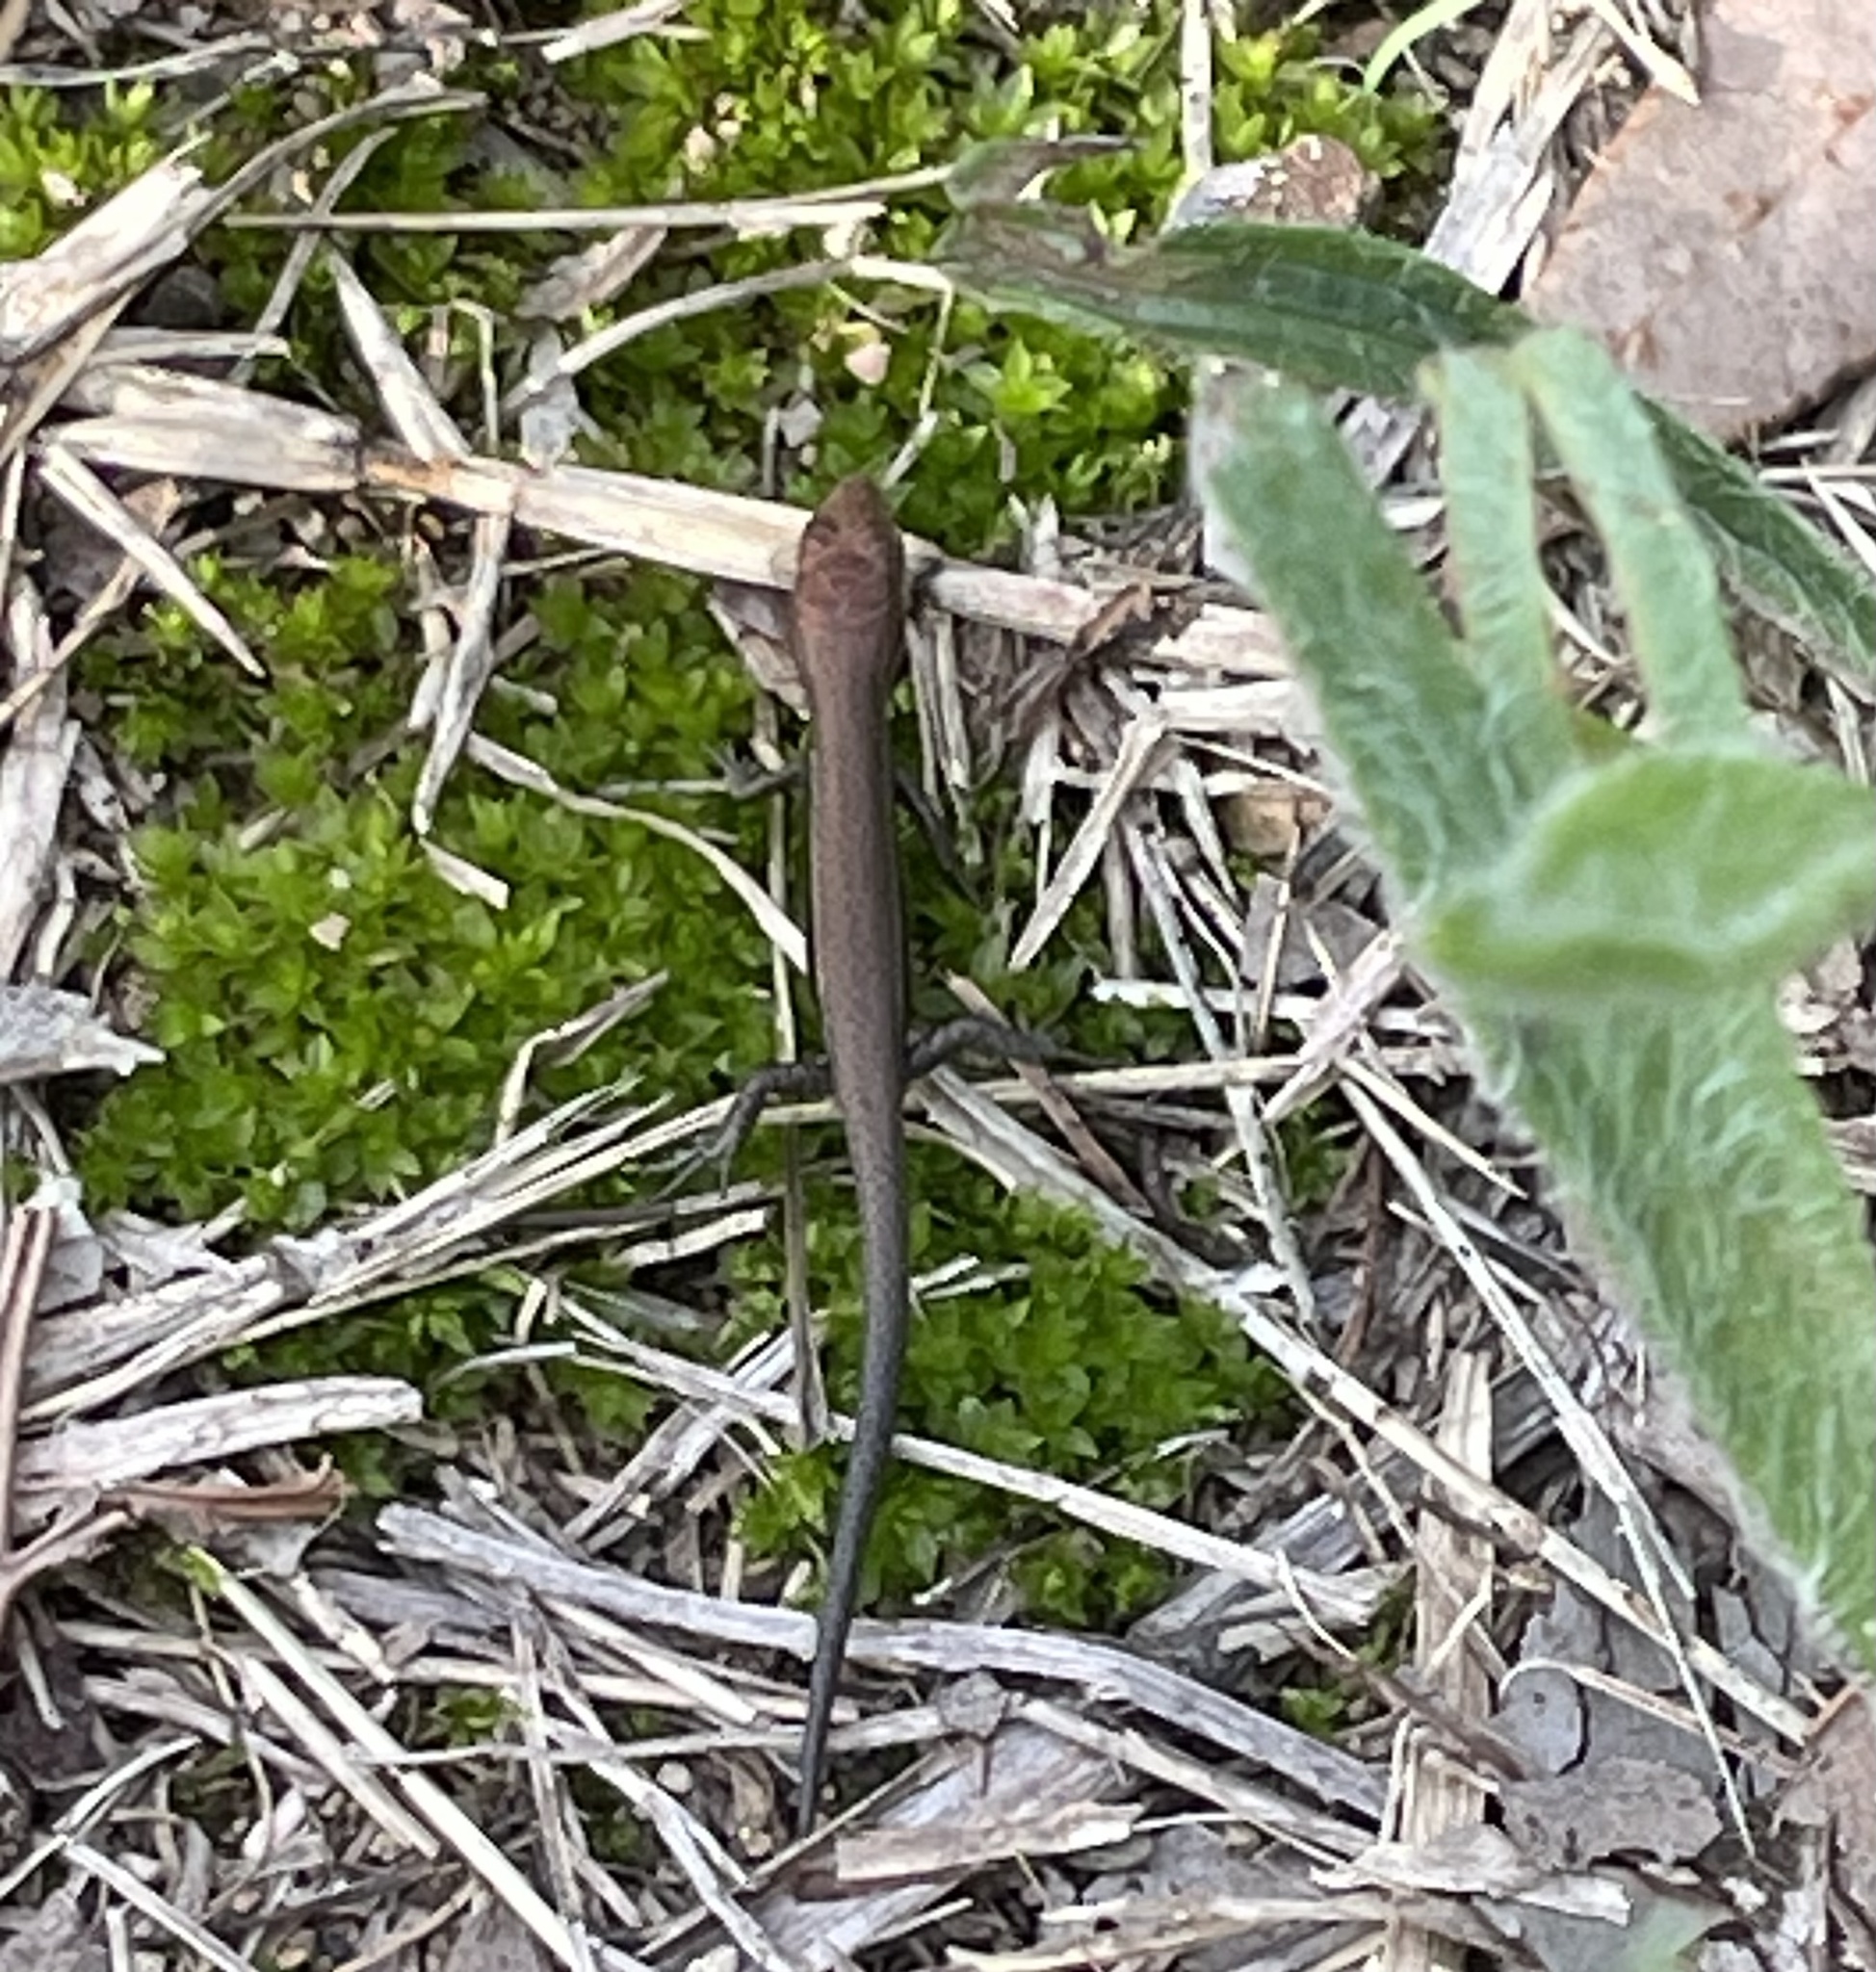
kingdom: Animalia
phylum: Chordata
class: Squamata
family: Scincidae
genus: Lampropholis
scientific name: Lampropholis delicata
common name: Plague skink
